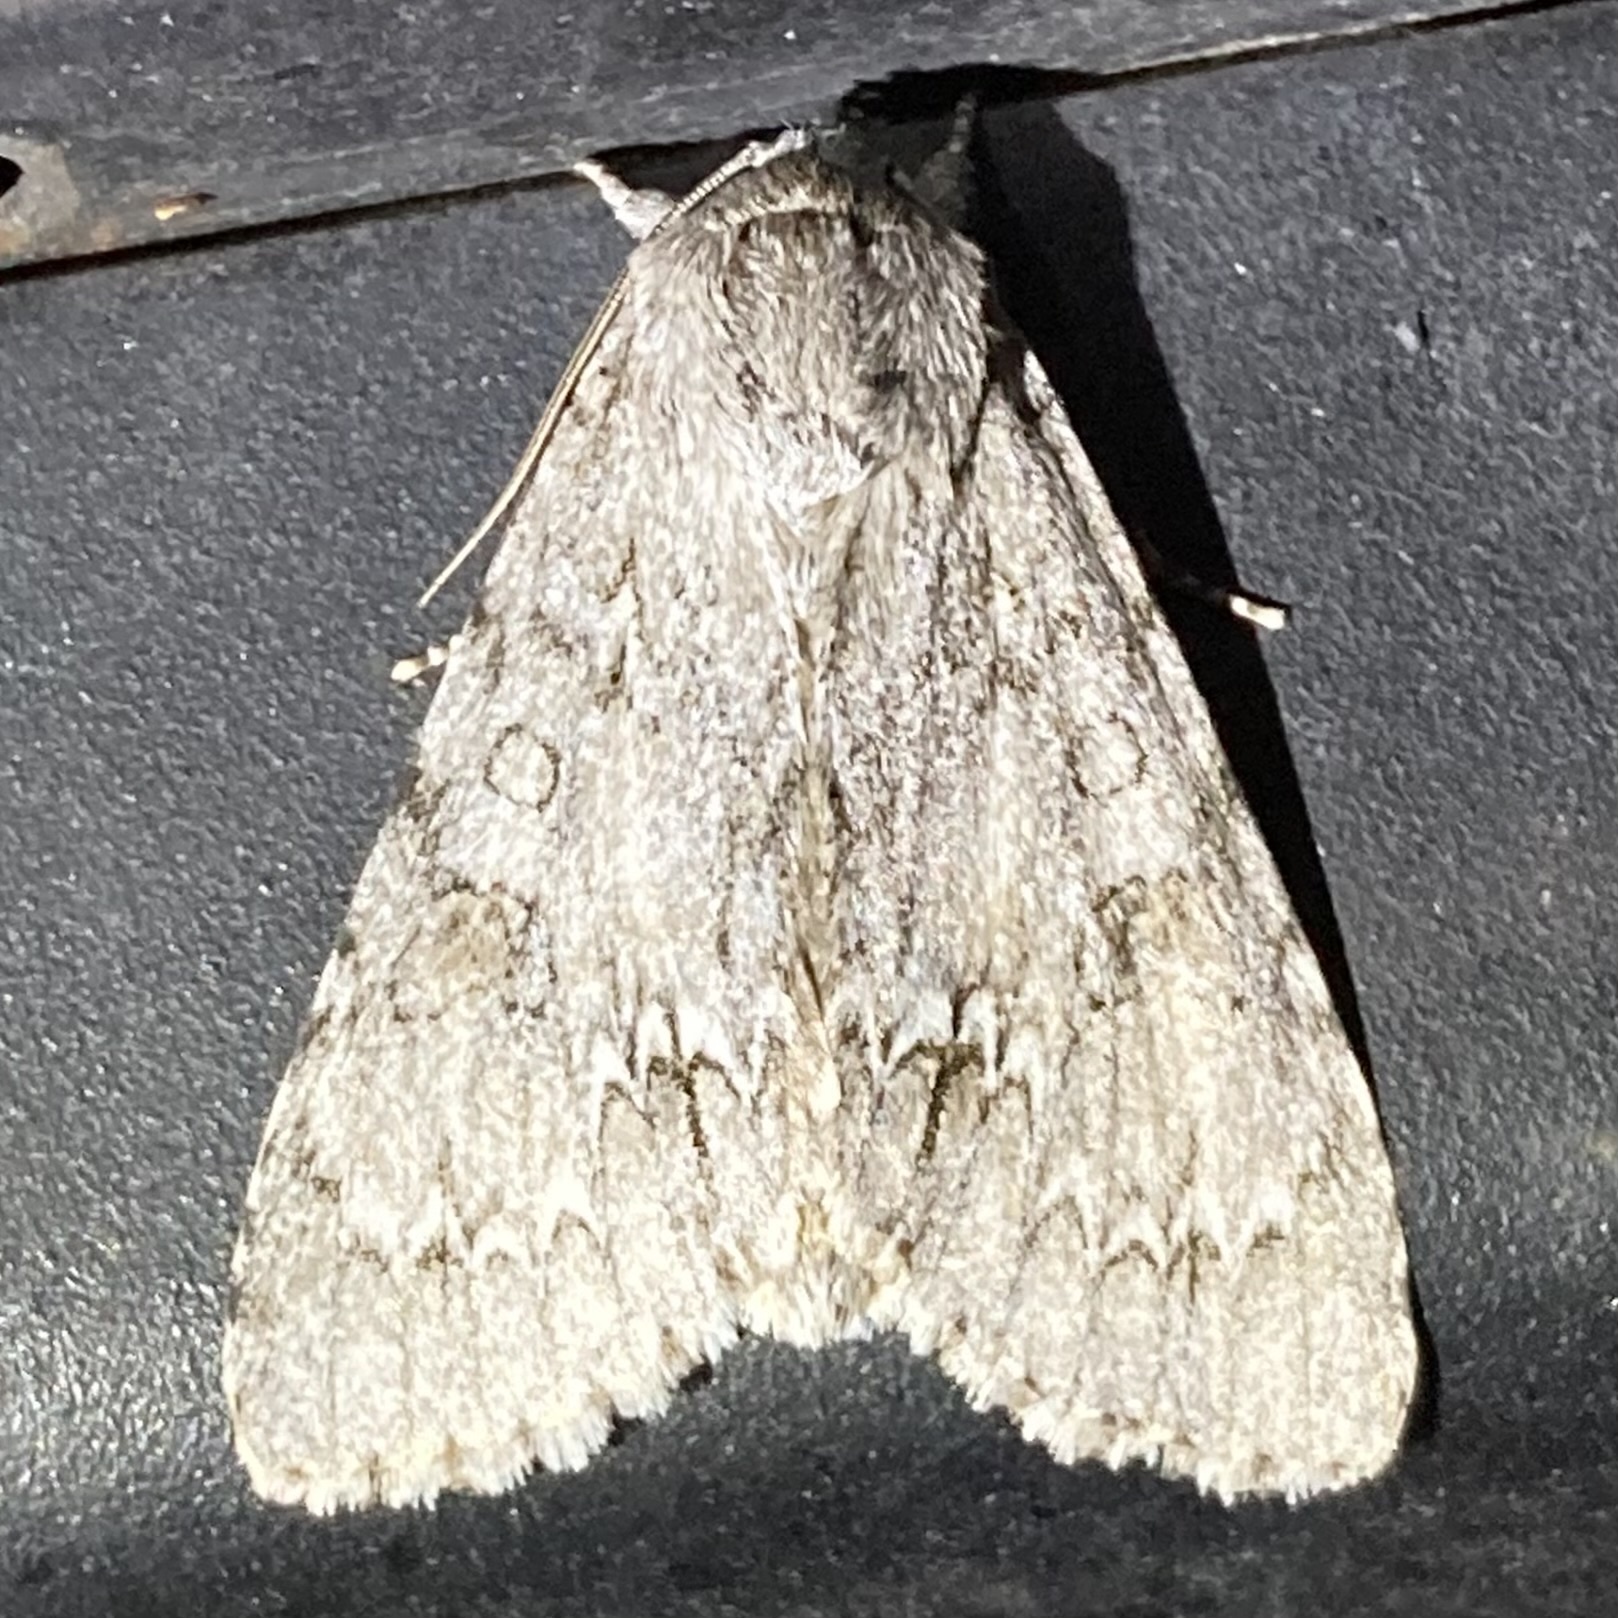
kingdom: Animalia
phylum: Arthropoda
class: Insecta
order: Lepidoptera
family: Noctuidae
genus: Acronicta
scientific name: Acronicta americana
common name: American dagger
